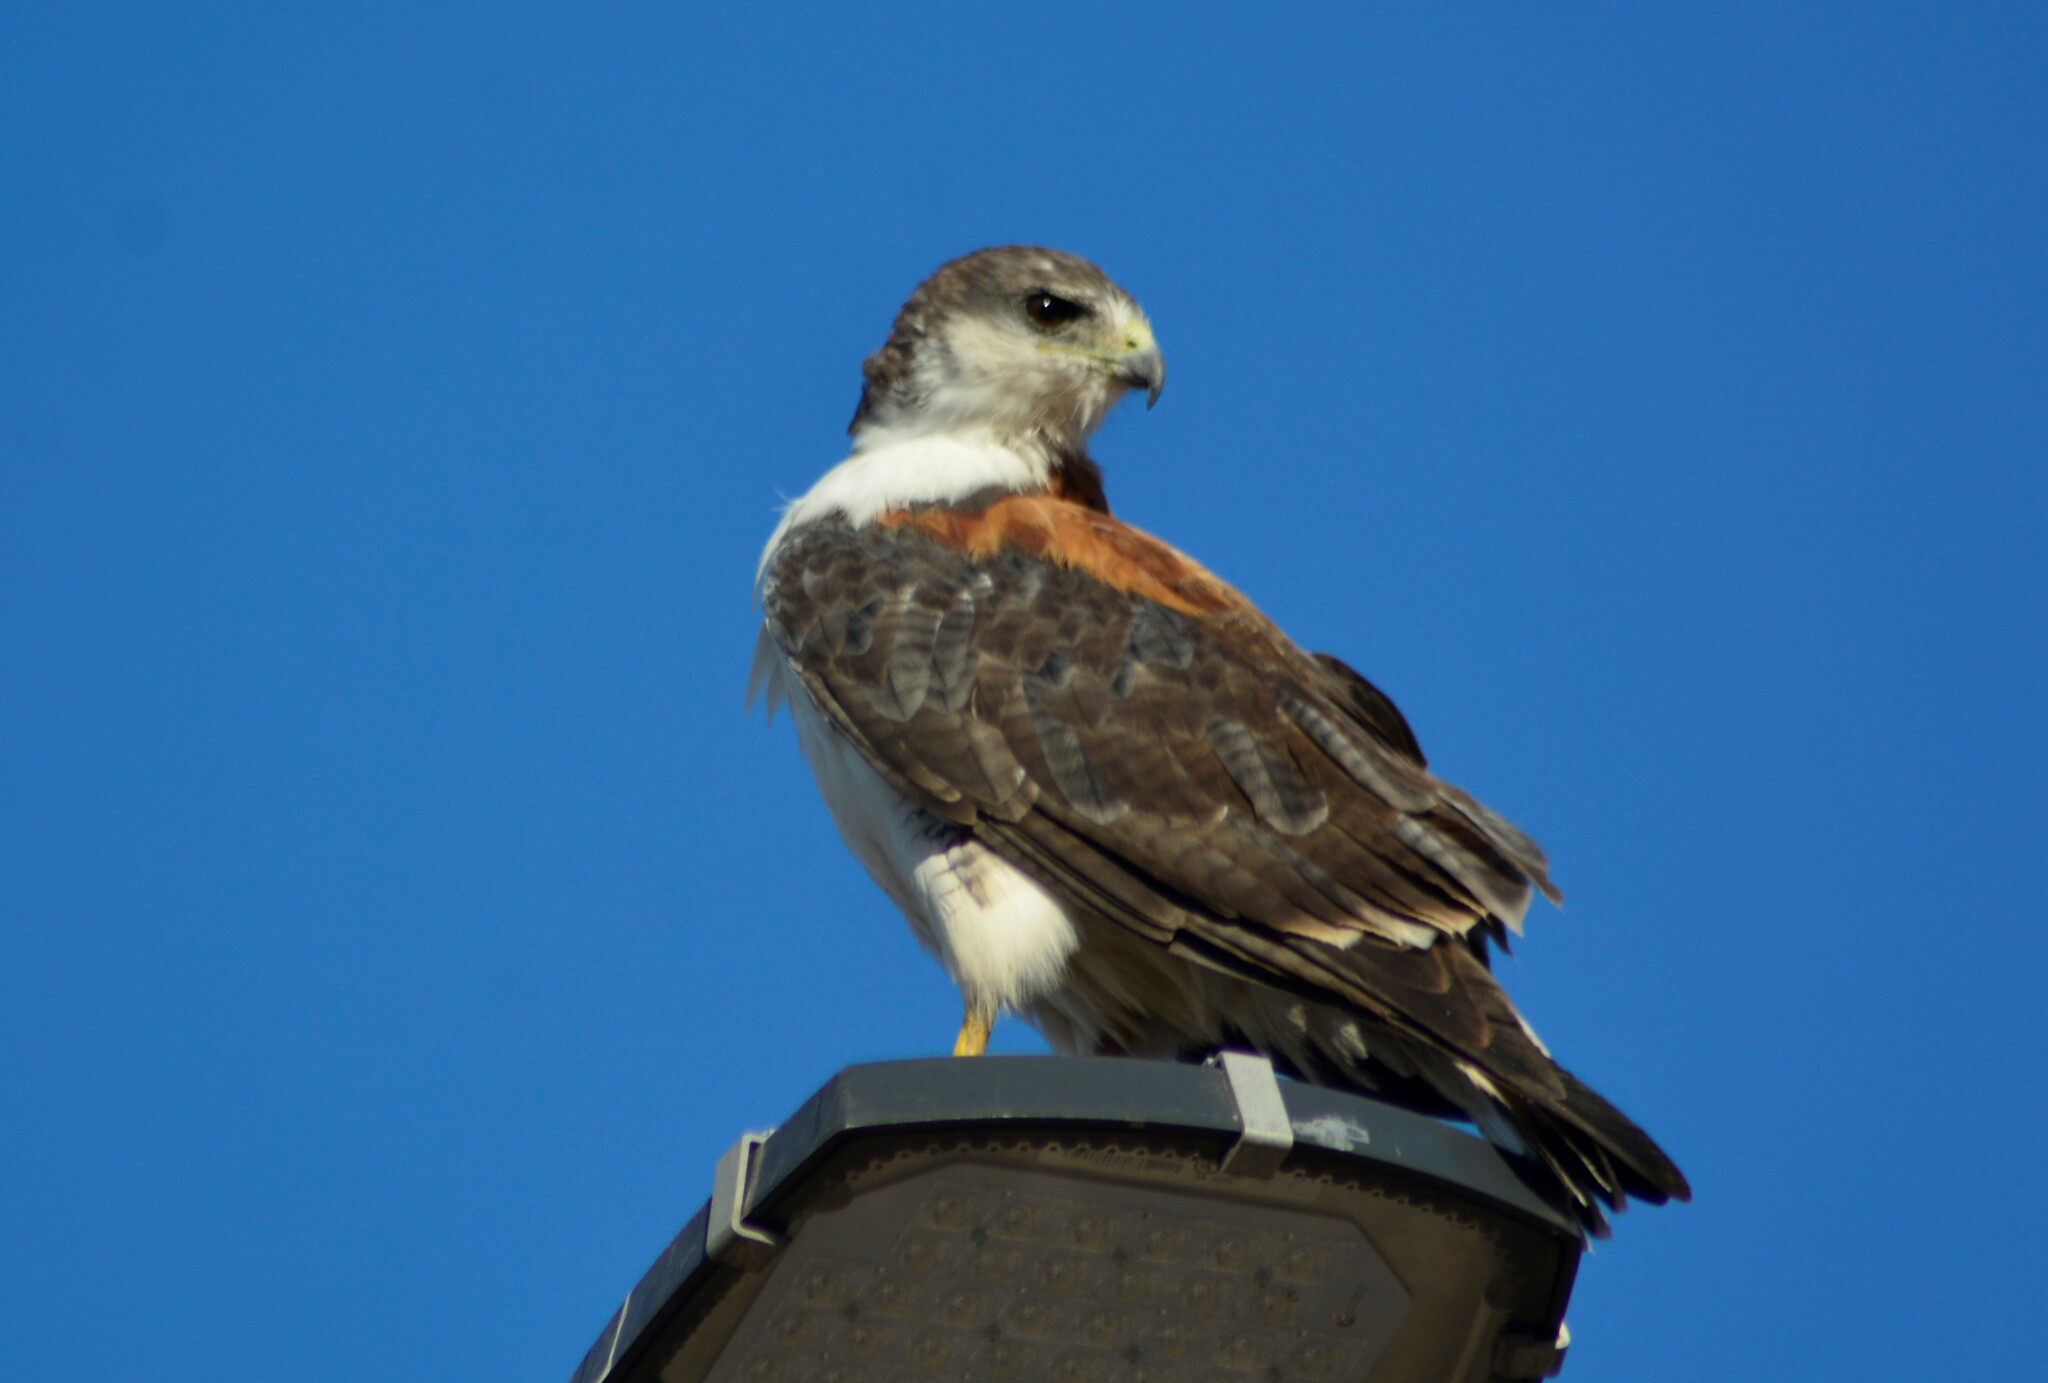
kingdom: Animalia
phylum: Chordata
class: Aves
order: Accipitriformes
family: Accipitridae
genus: Buteo
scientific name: Buteo polyosoma
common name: Variable hawk
